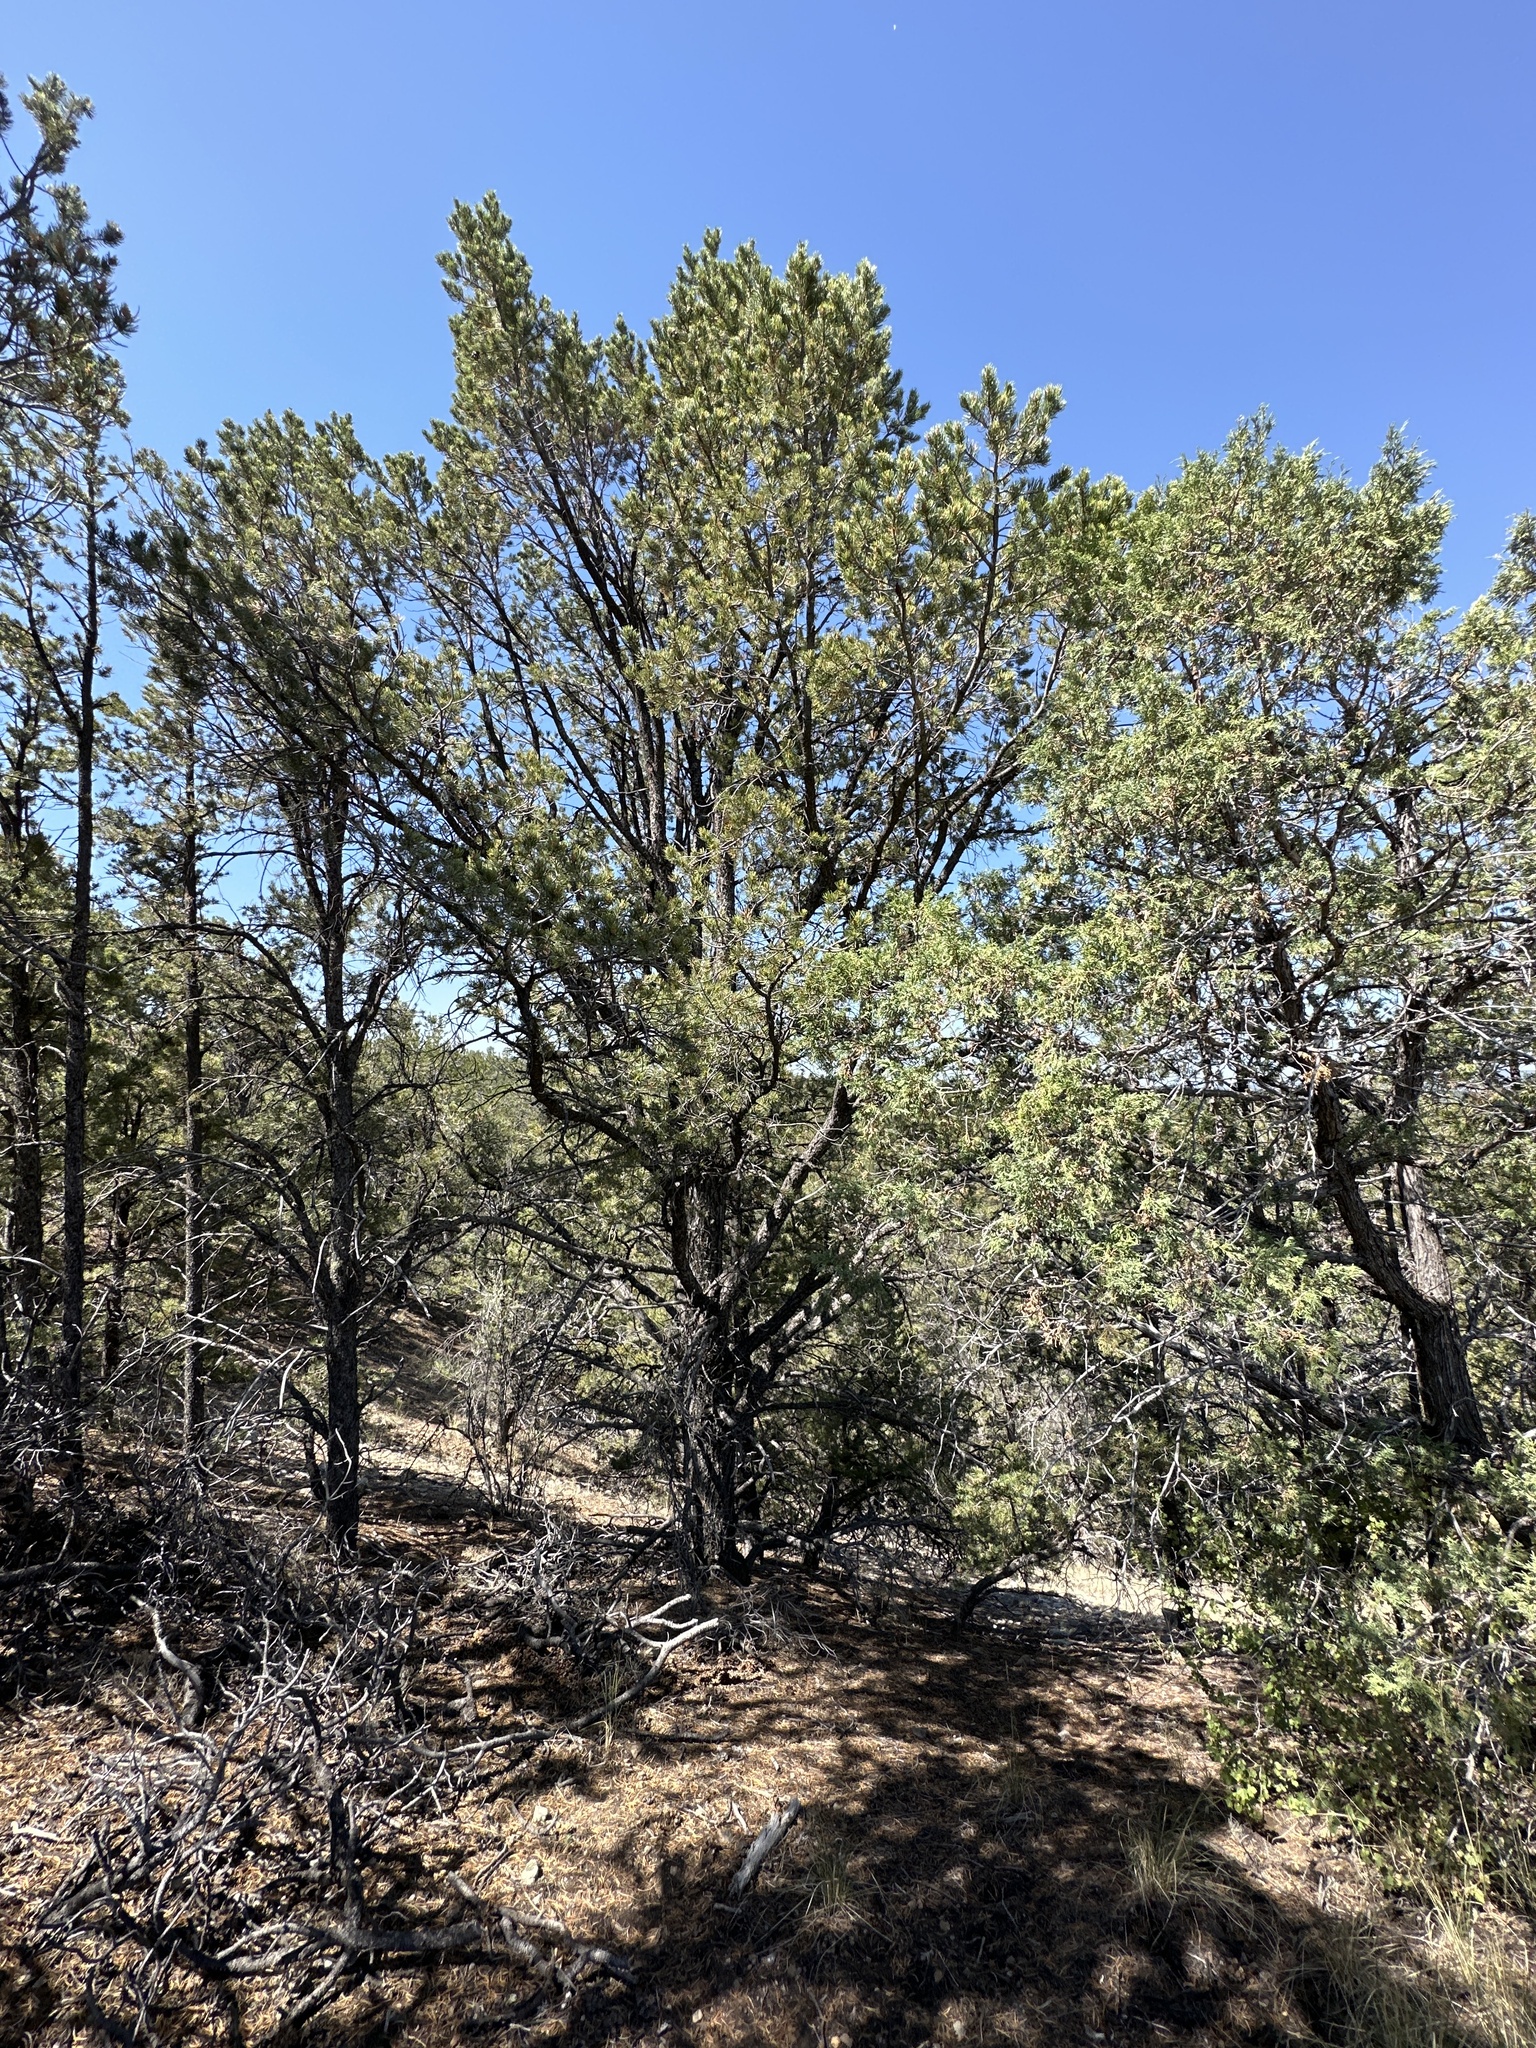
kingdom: Plantae
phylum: Tracheophyta
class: Pinopsida
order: Pinales
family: Pinaceae
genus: Pinus
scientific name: Pinus edulis
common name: Colorado pinyon
